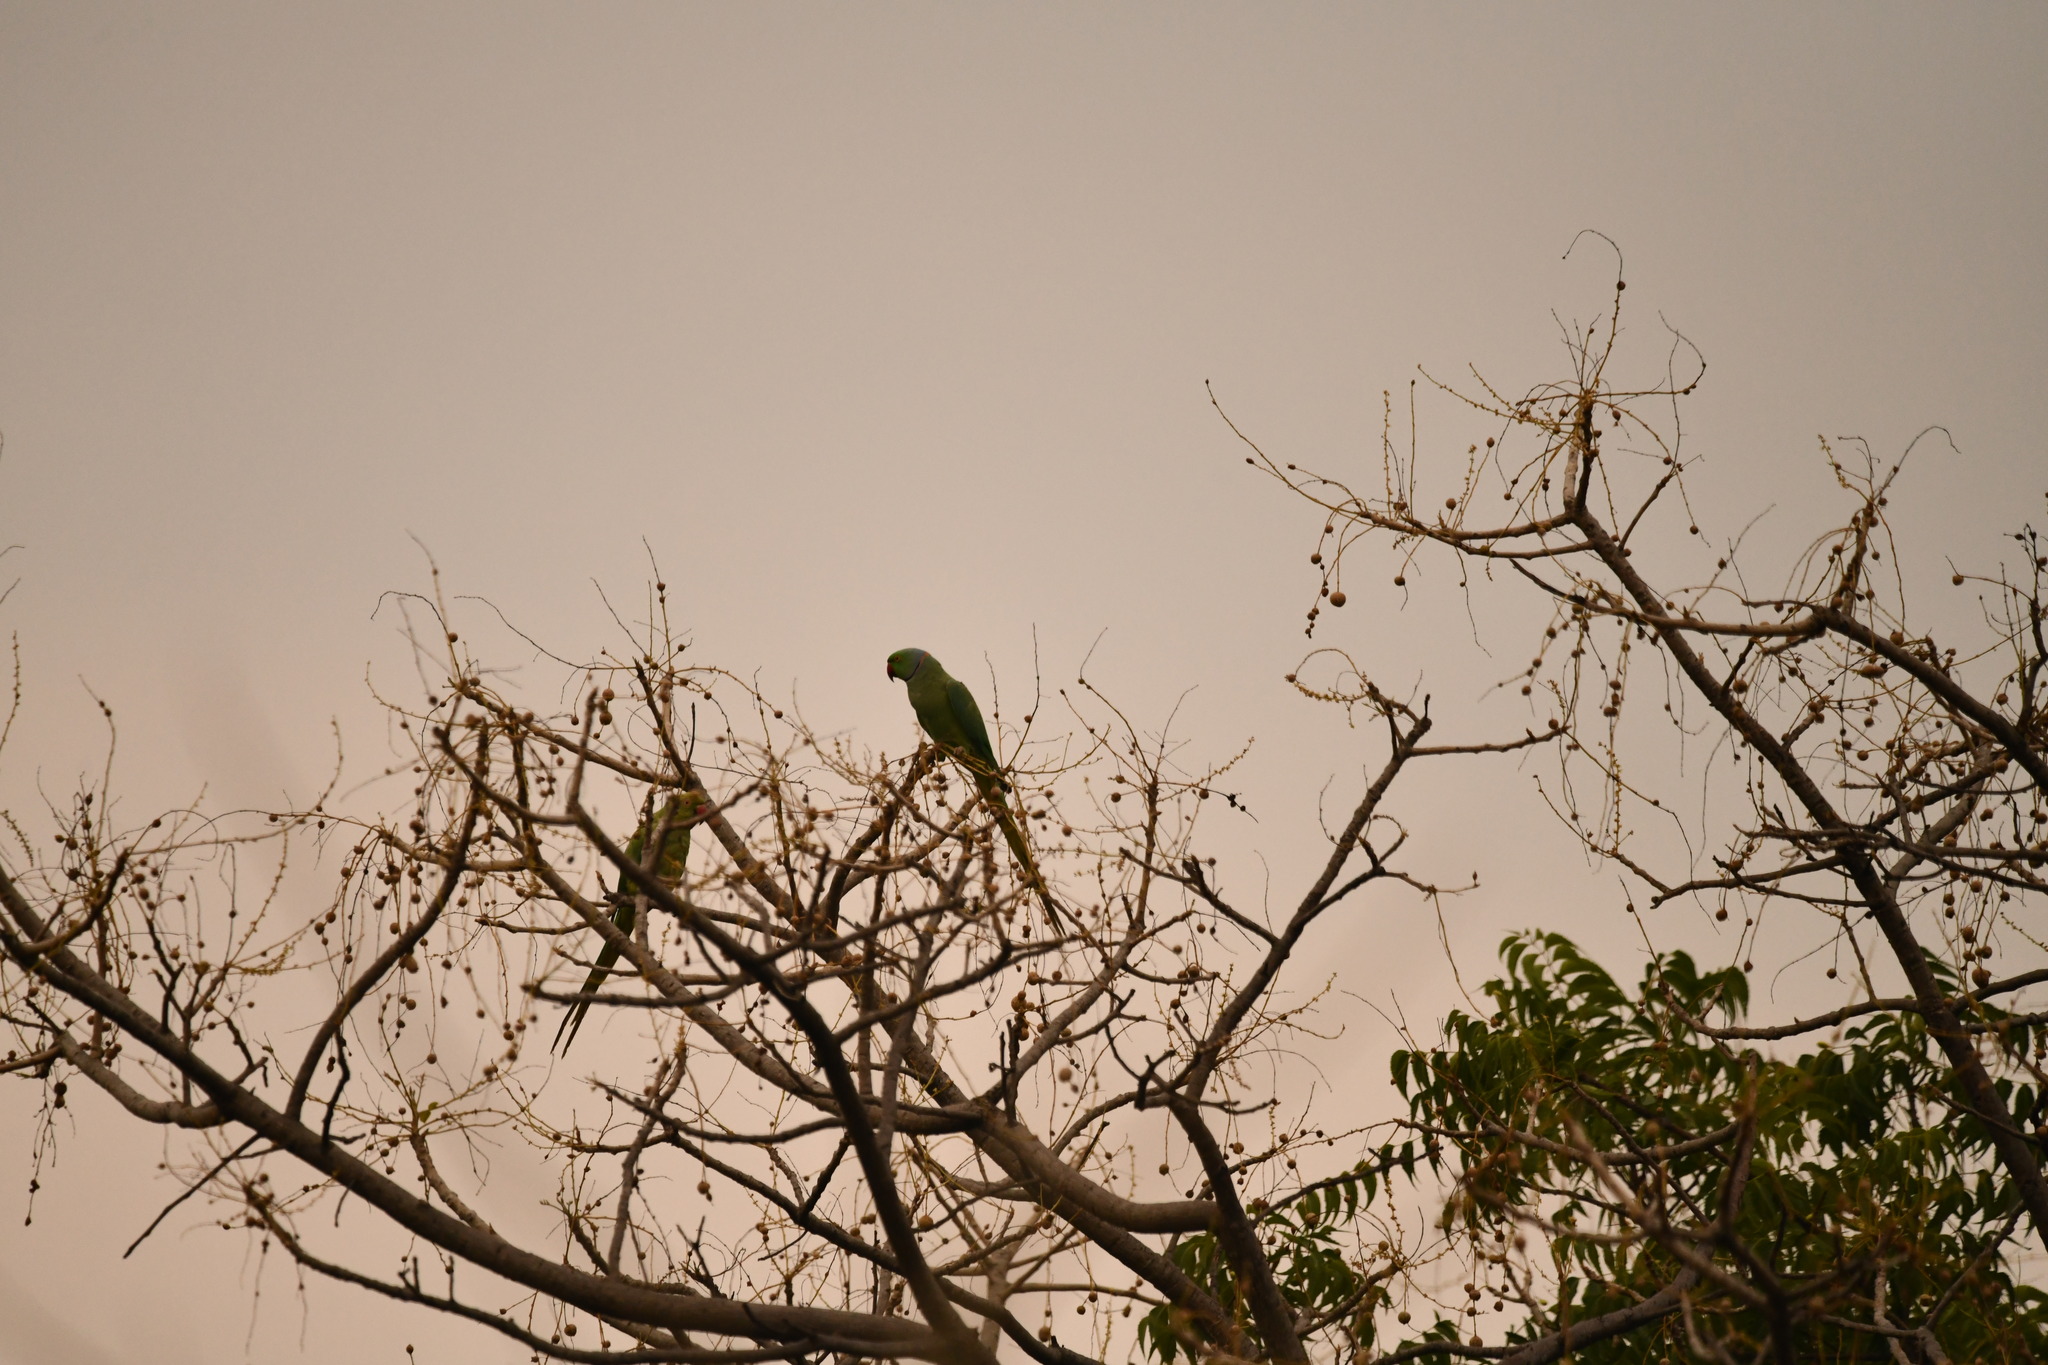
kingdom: Animalia
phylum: Chordata
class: Aves
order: Psittaciformes
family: Psittacidae
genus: Psittacula
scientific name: Psittacula krameri
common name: Rose-ringed parakeet
